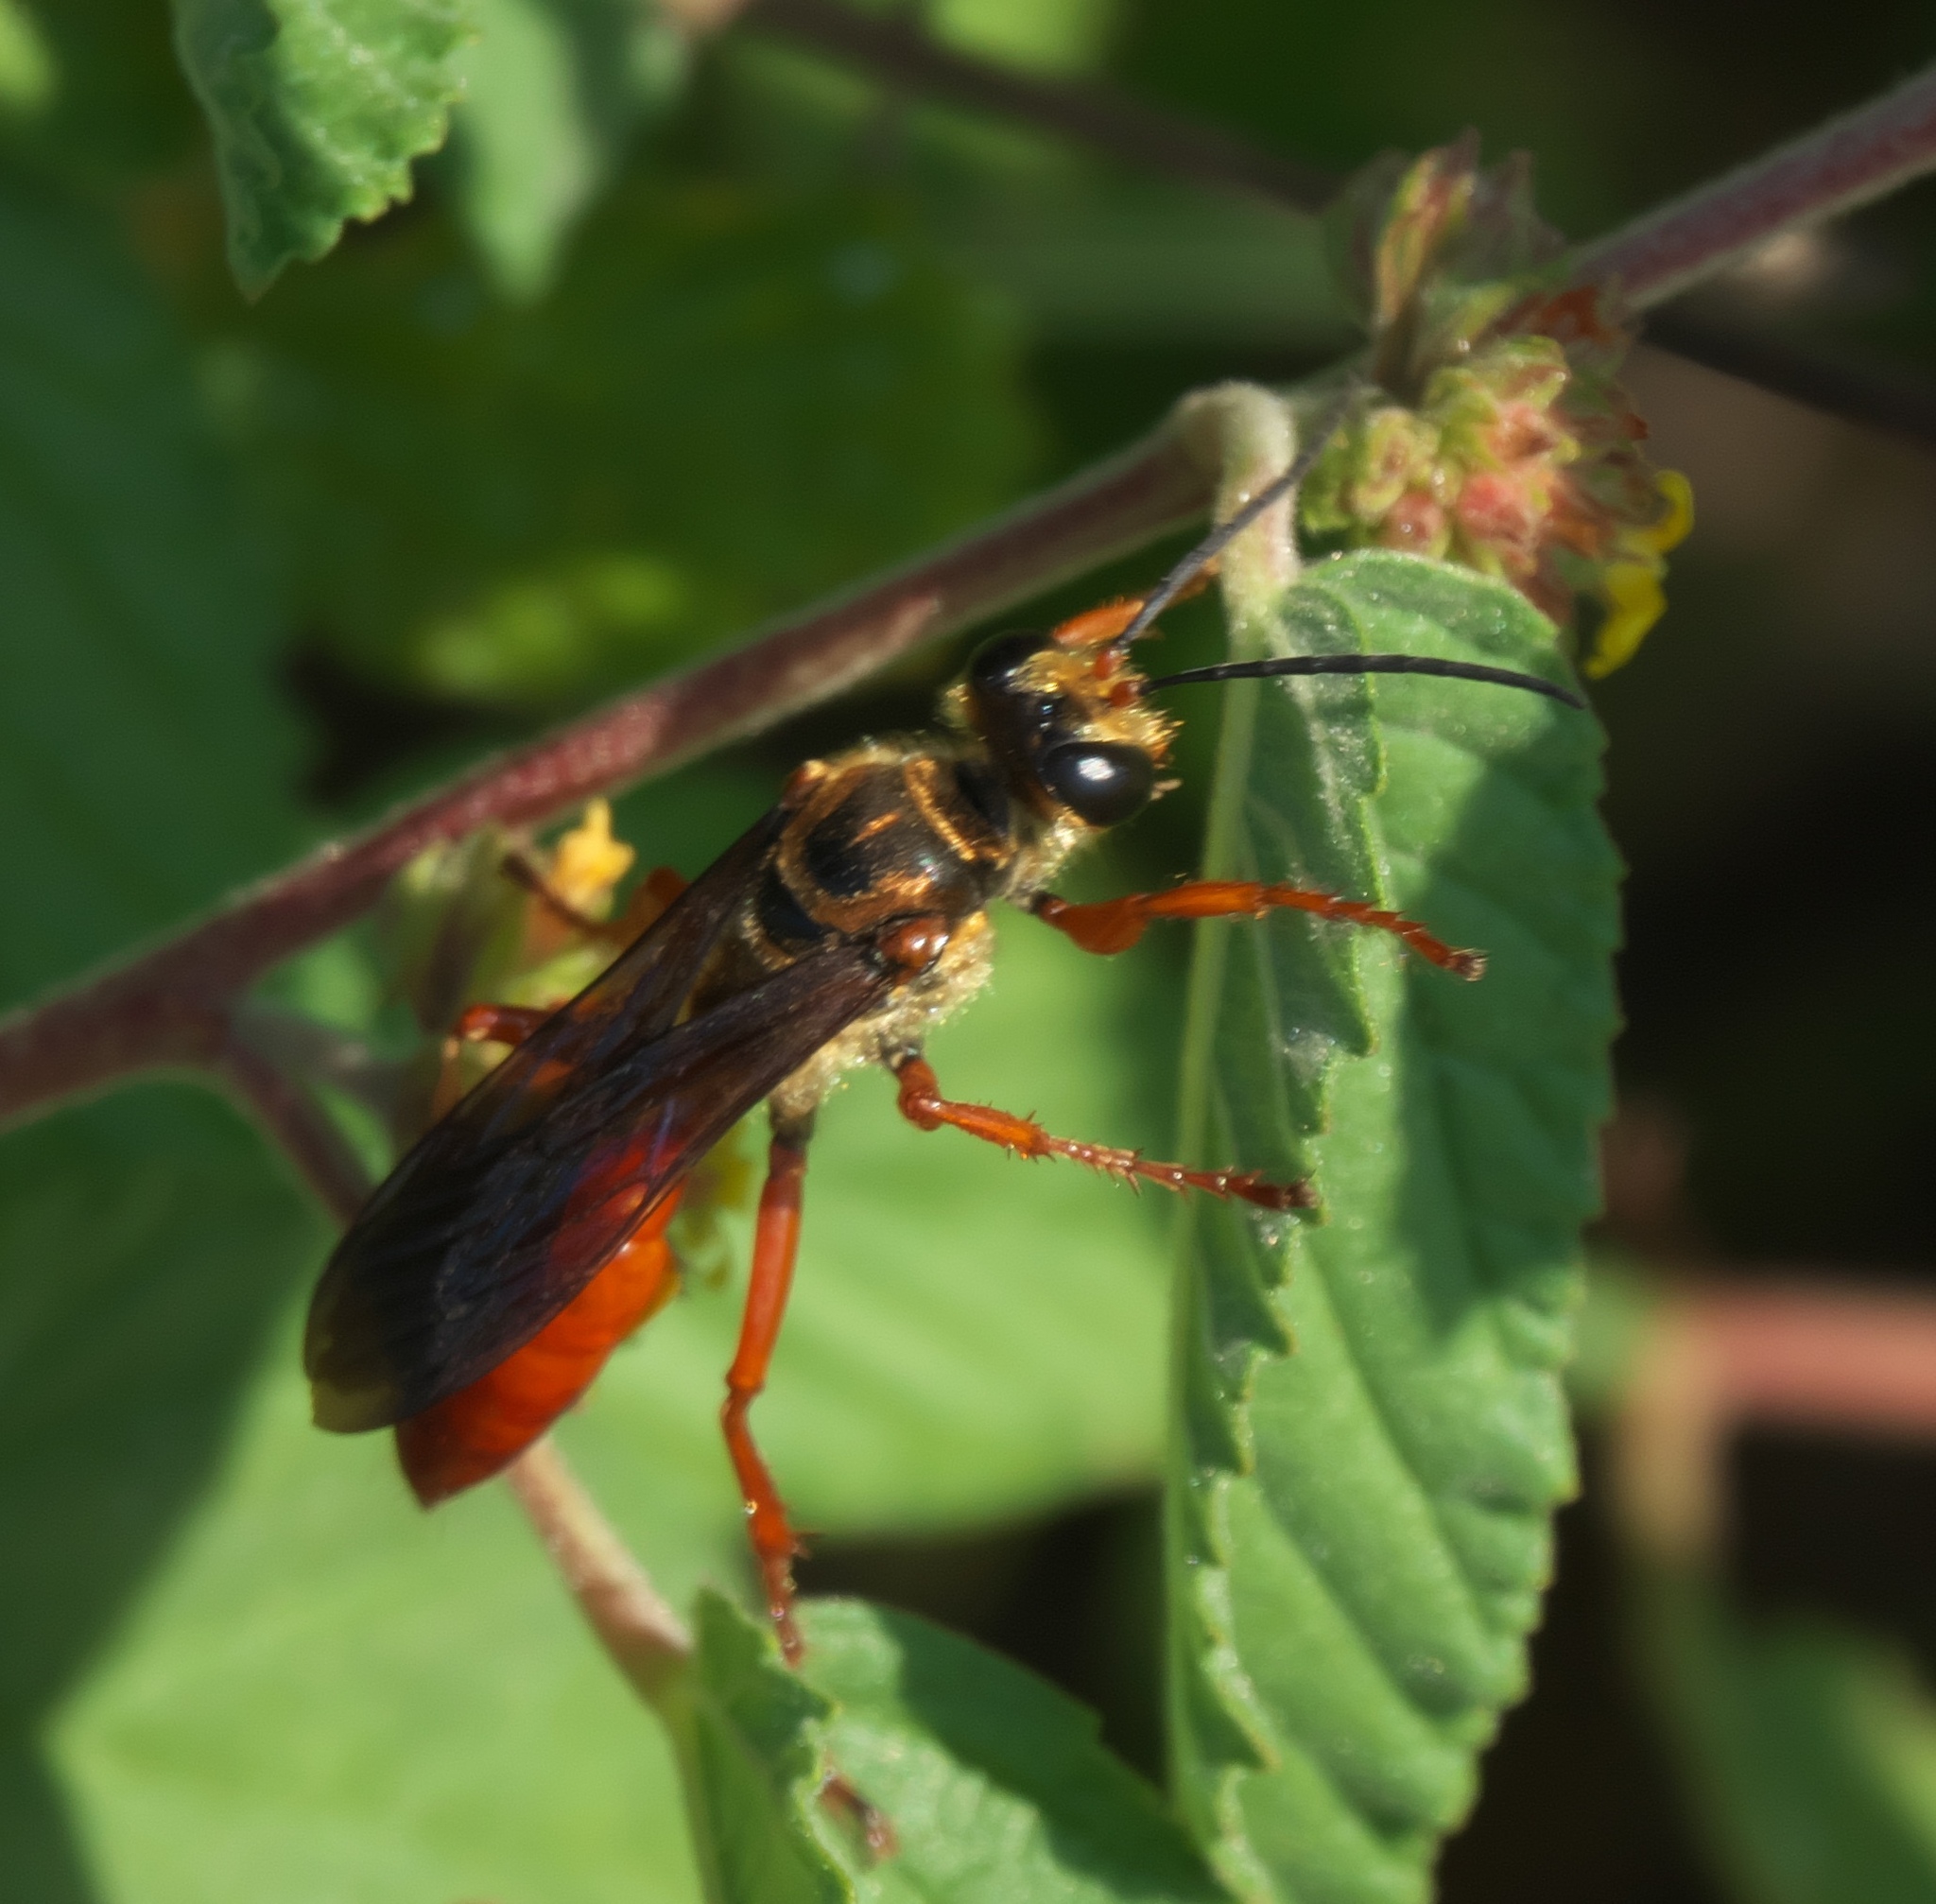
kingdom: Animalia
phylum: Arthropoda
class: Insecta
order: Hymenoptera
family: Sphecidae
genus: Sphex
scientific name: Sphex jamaicensis
